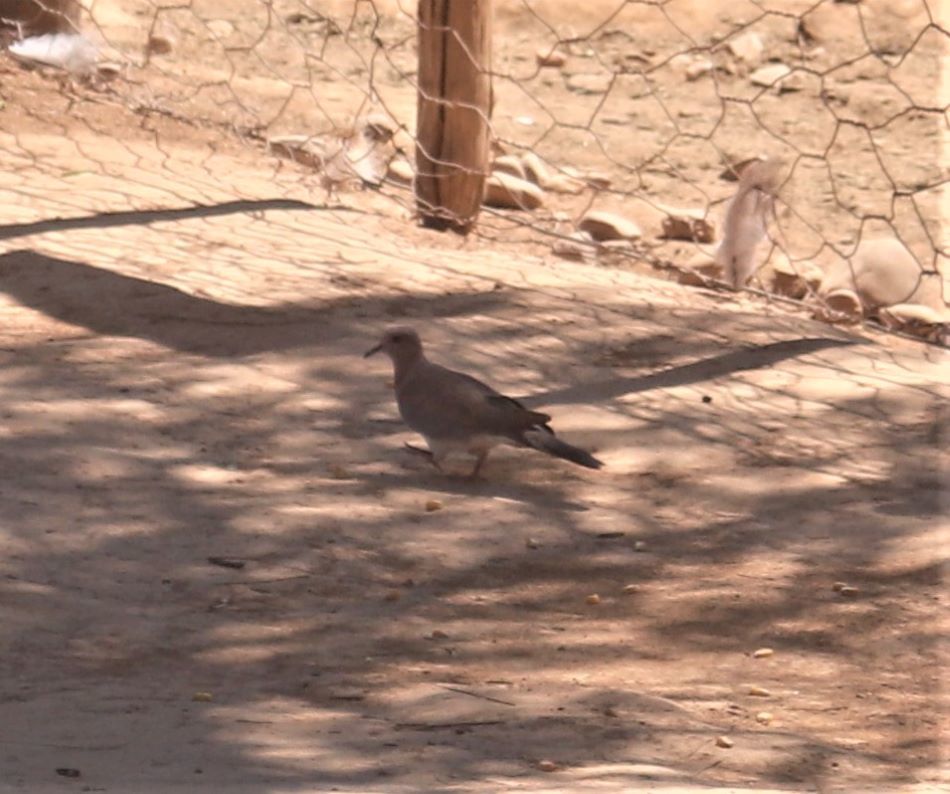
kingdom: Animalia
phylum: Chordata
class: Aves
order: Columbiformes
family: Columbidae
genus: Spilopelia
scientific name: Spilopelia senegalensis
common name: Laughing dove
